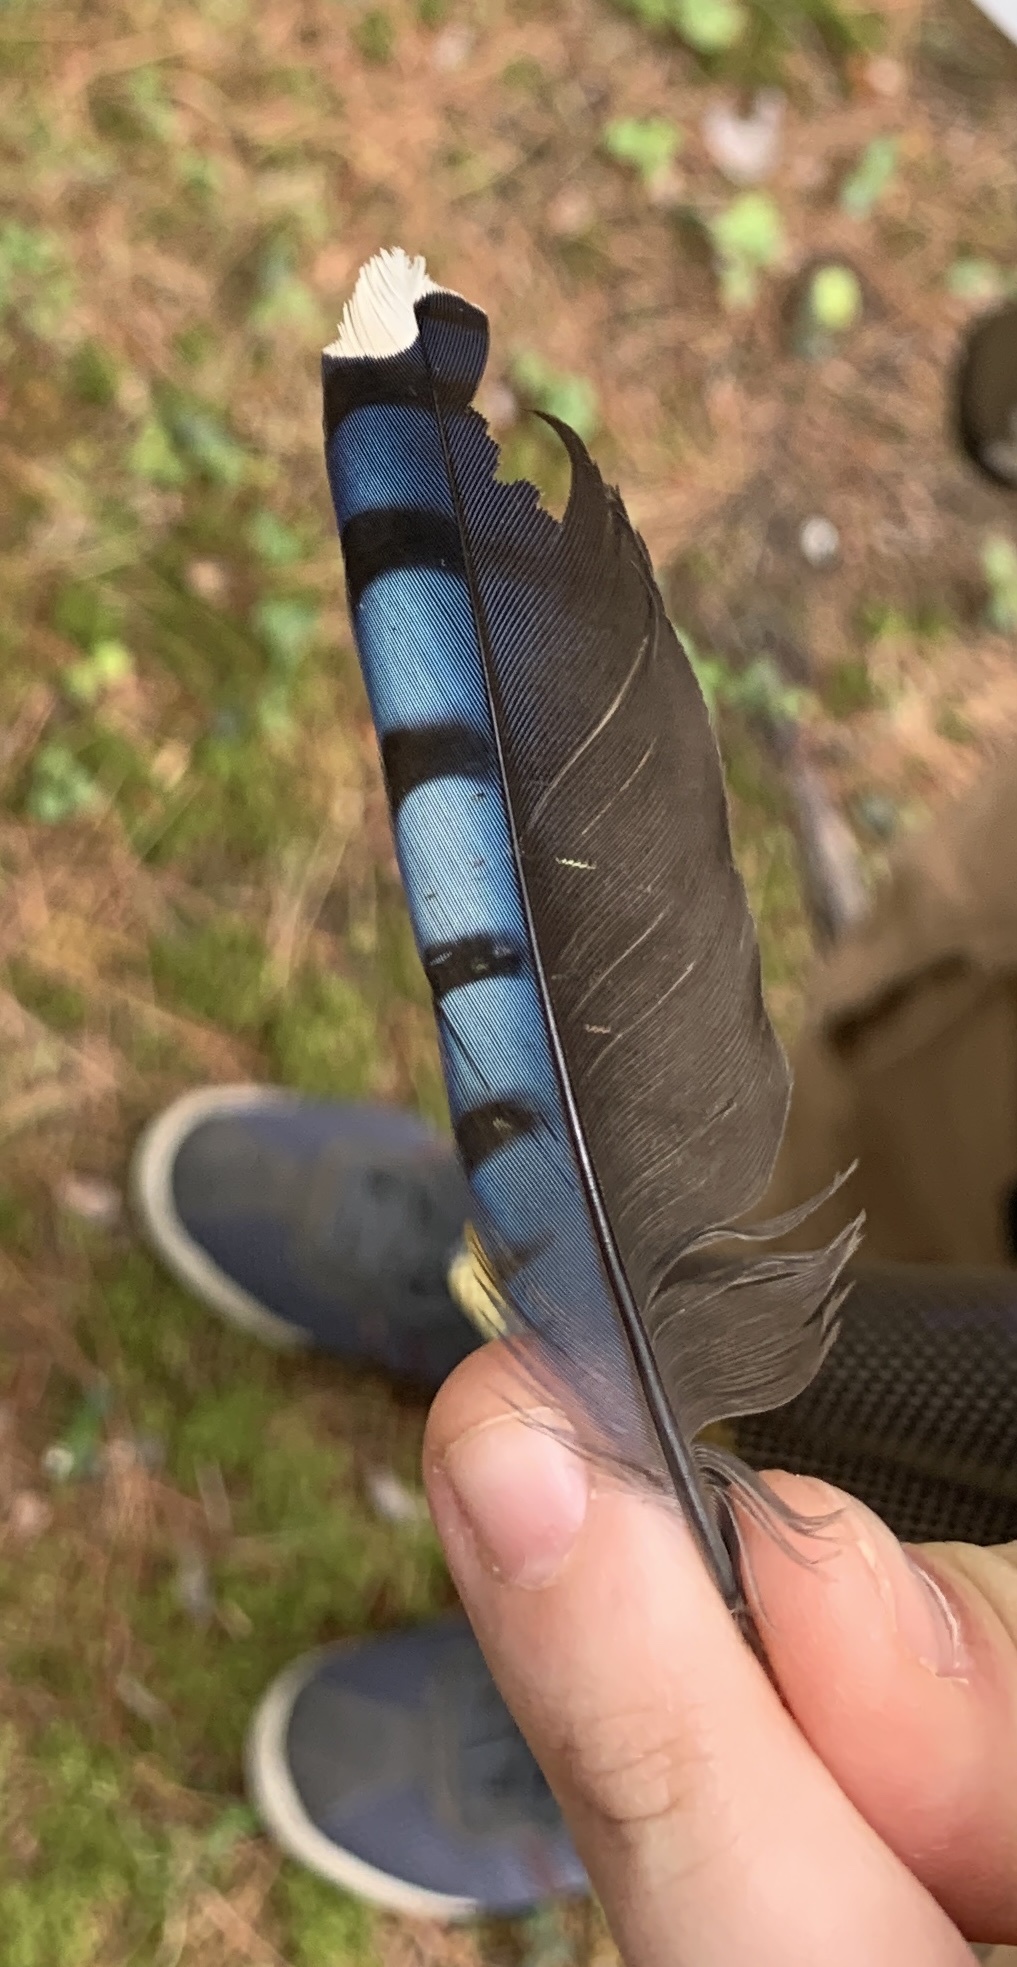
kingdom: Animalia
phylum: Chordata
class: Aves
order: Passeriformes
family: Corvidae
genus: Cyanocitta
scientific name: Cyanocitta cristata
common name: Blue jay
